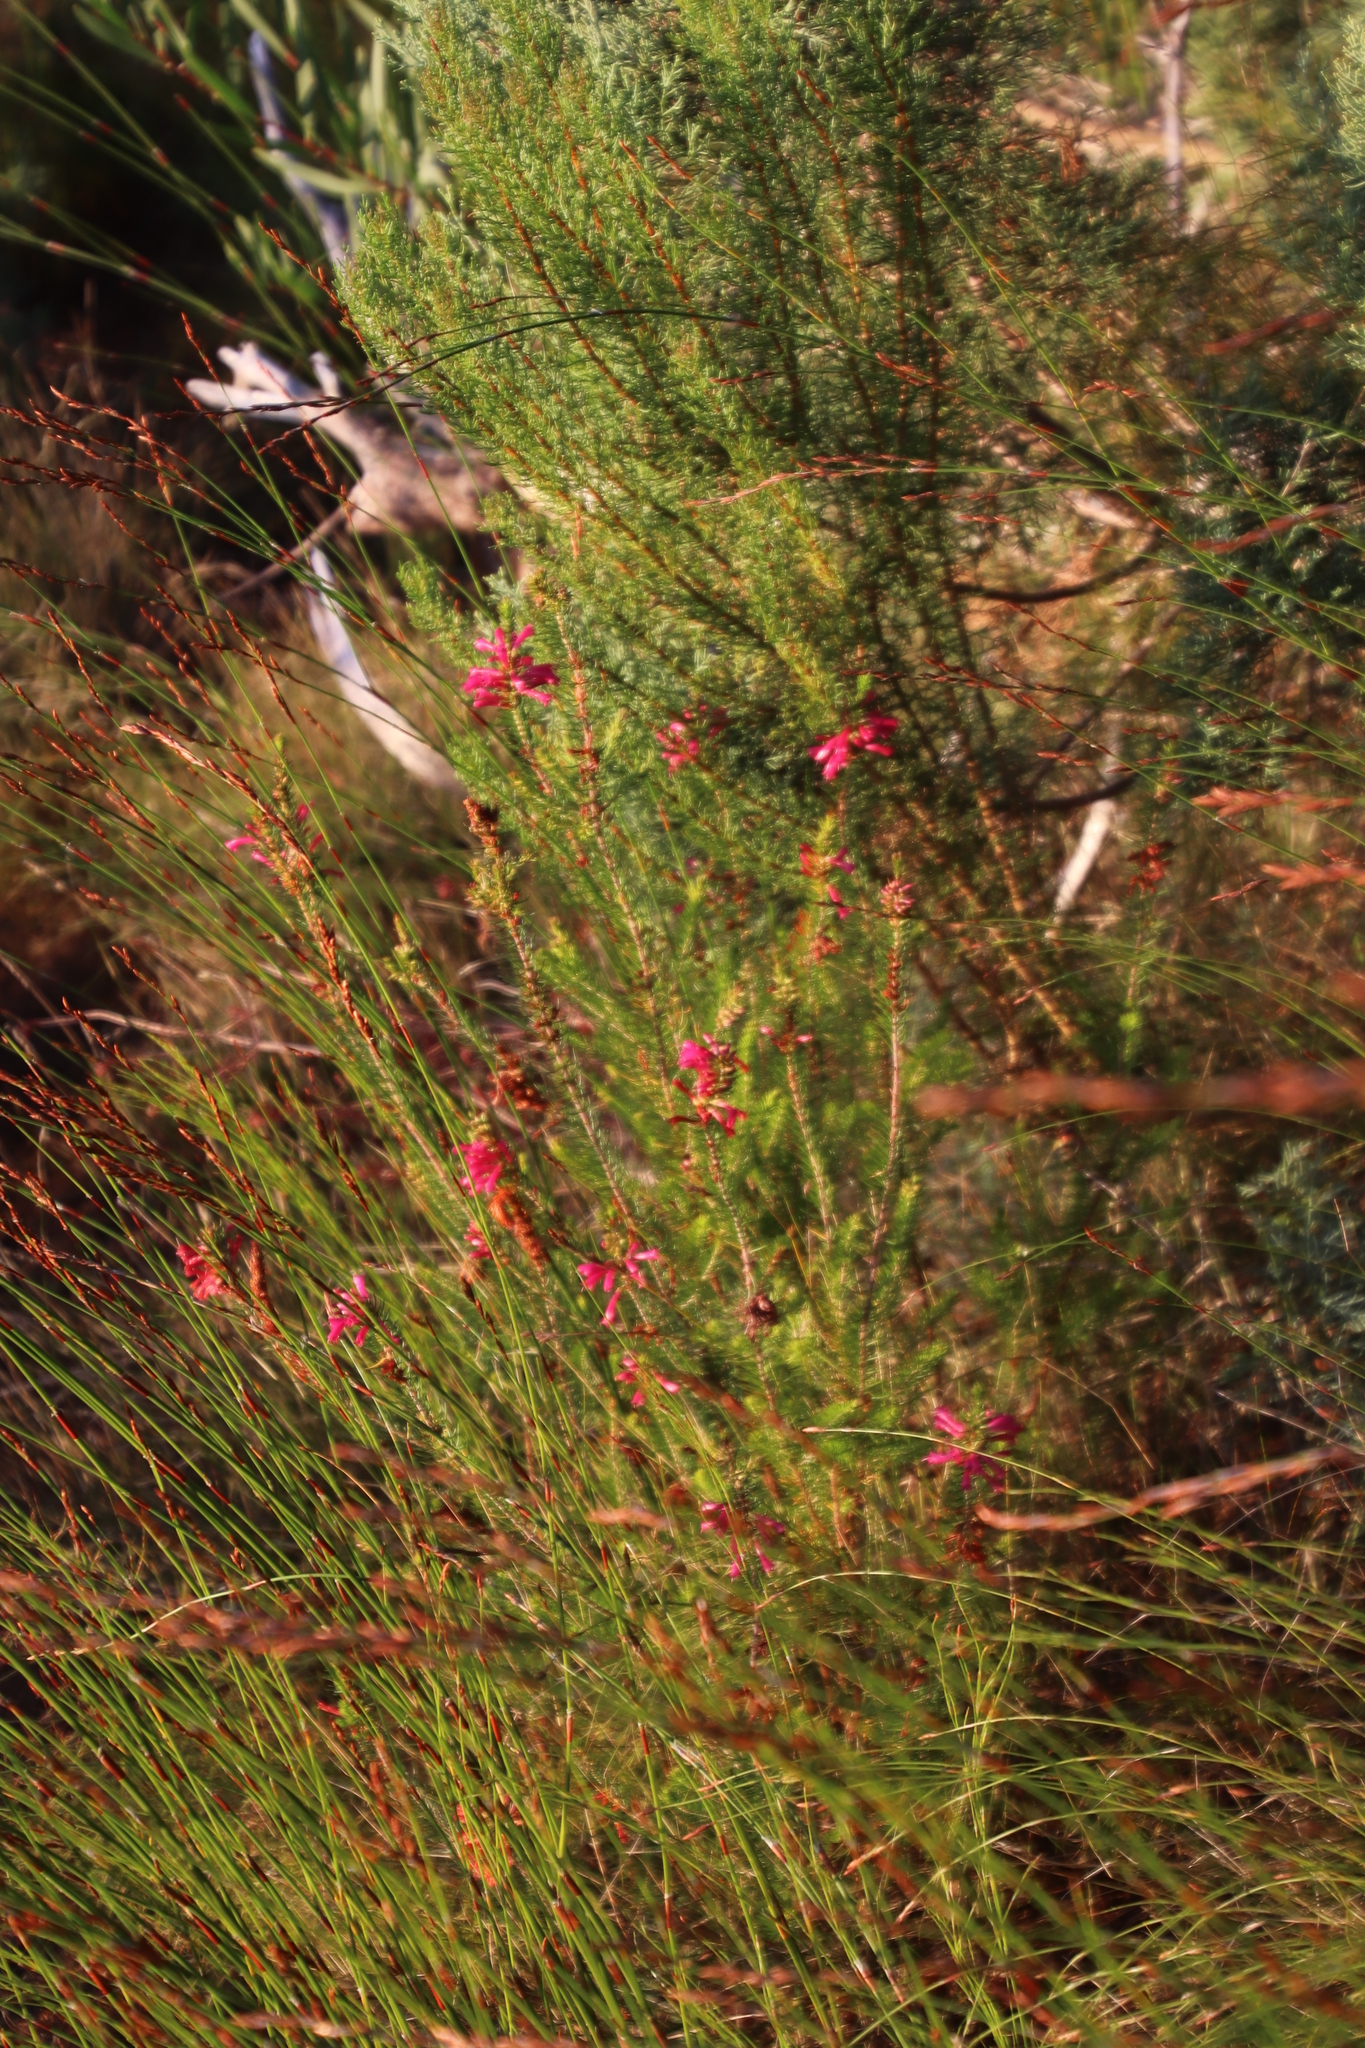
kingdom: Plantae
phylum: Tracheophyta
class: Magnoliopsida
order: Ericales
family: Ericaceae
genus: Erica
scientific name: Erica abietina
